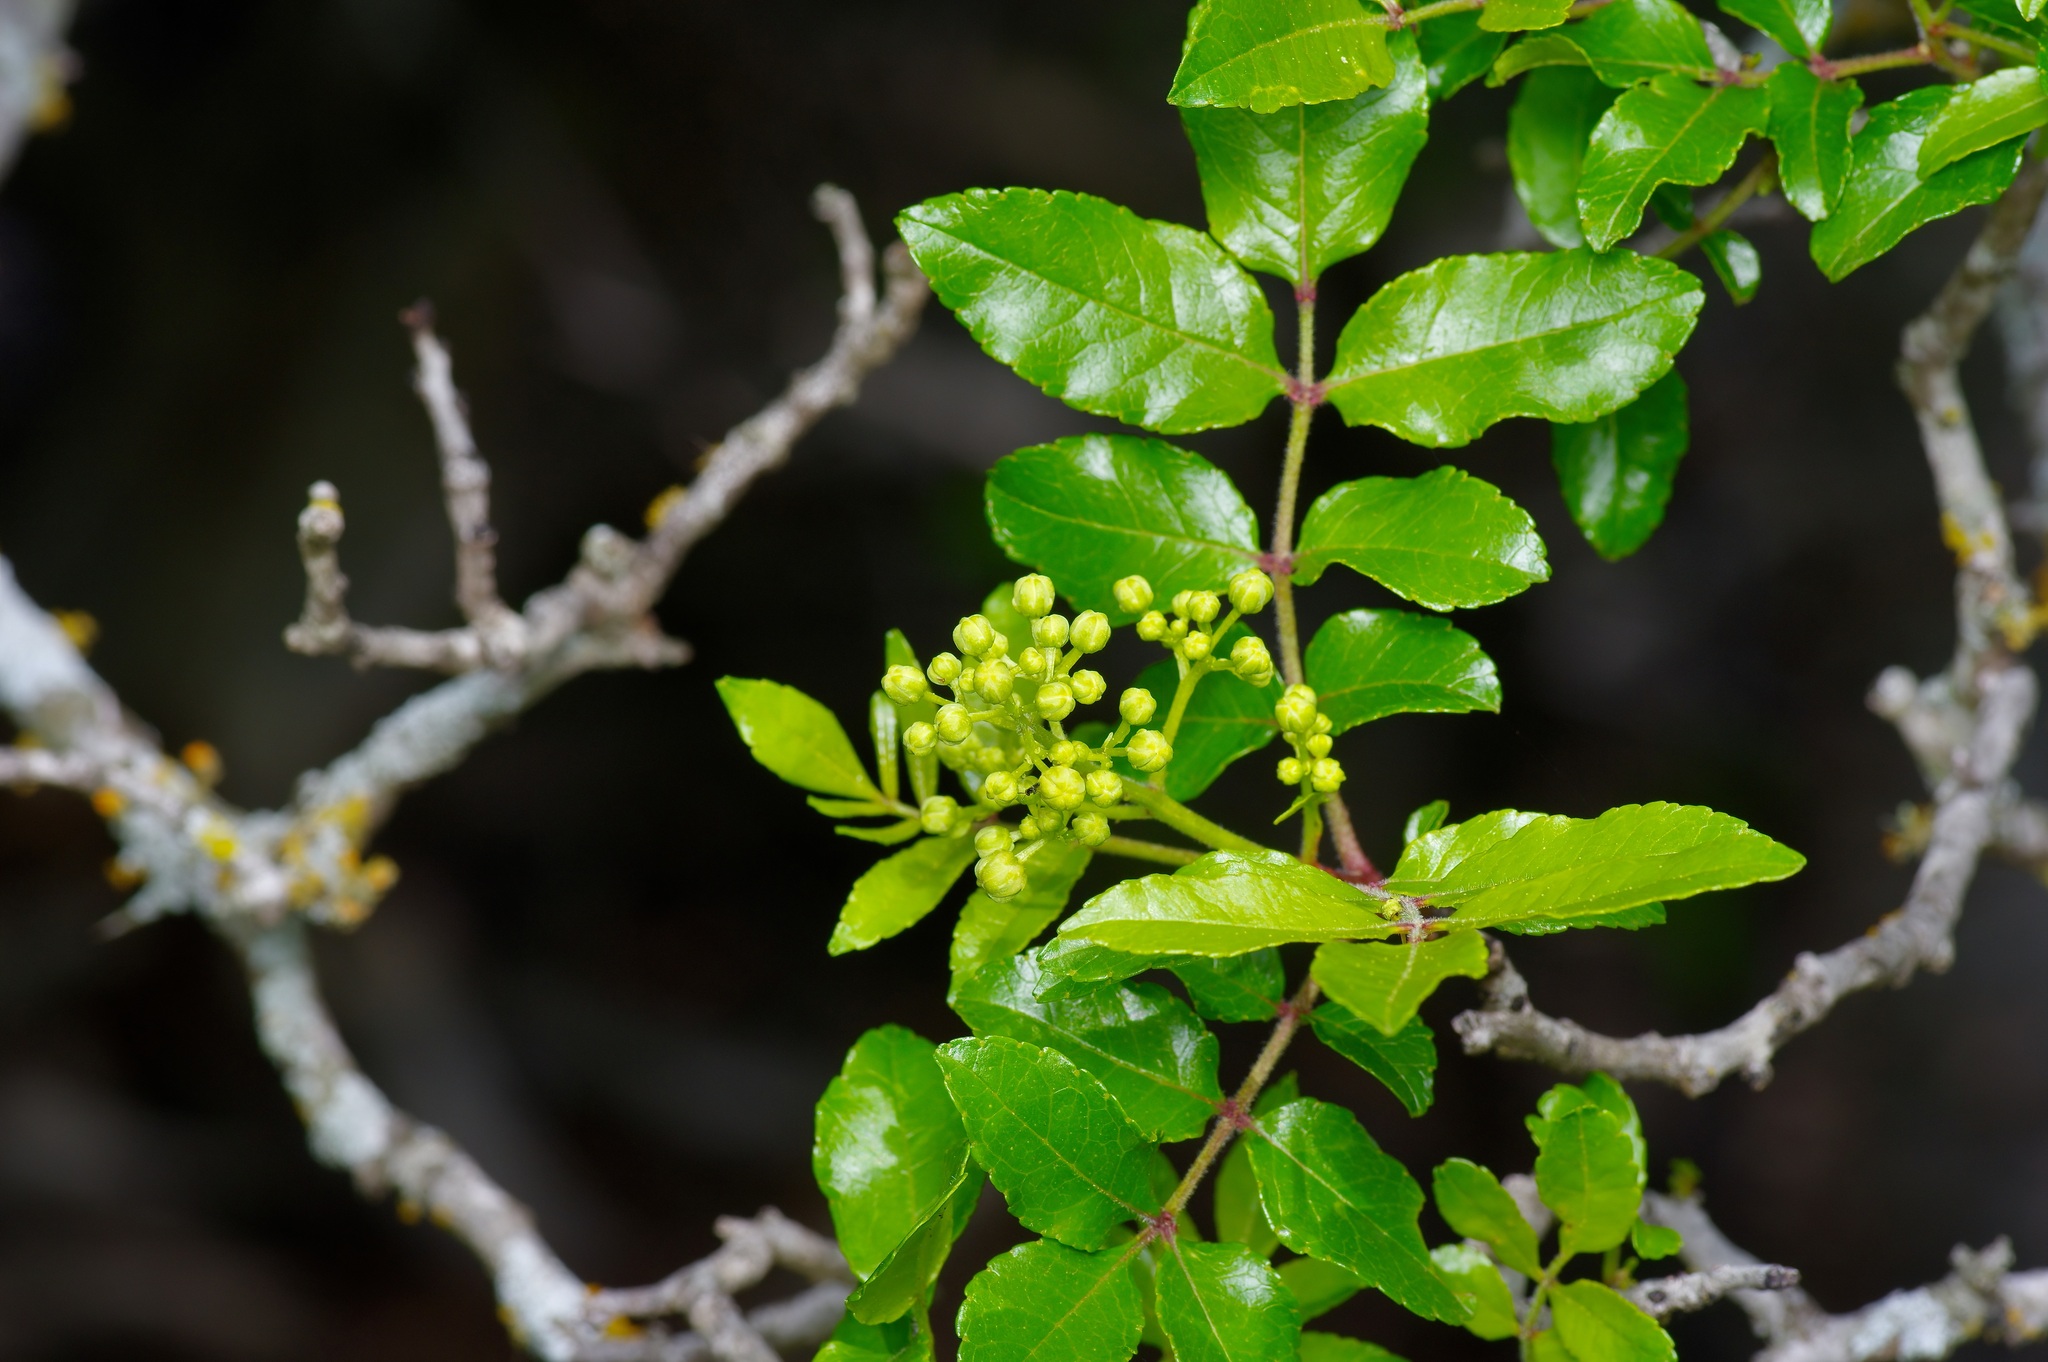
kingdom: Plantae
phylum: Tracheophyta
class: Magnoliopsida
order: Sapindales
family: Rutaceae
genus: Zanthoxylum
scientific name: Zanthoxylum clava-herculis
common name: Hercules'-club
